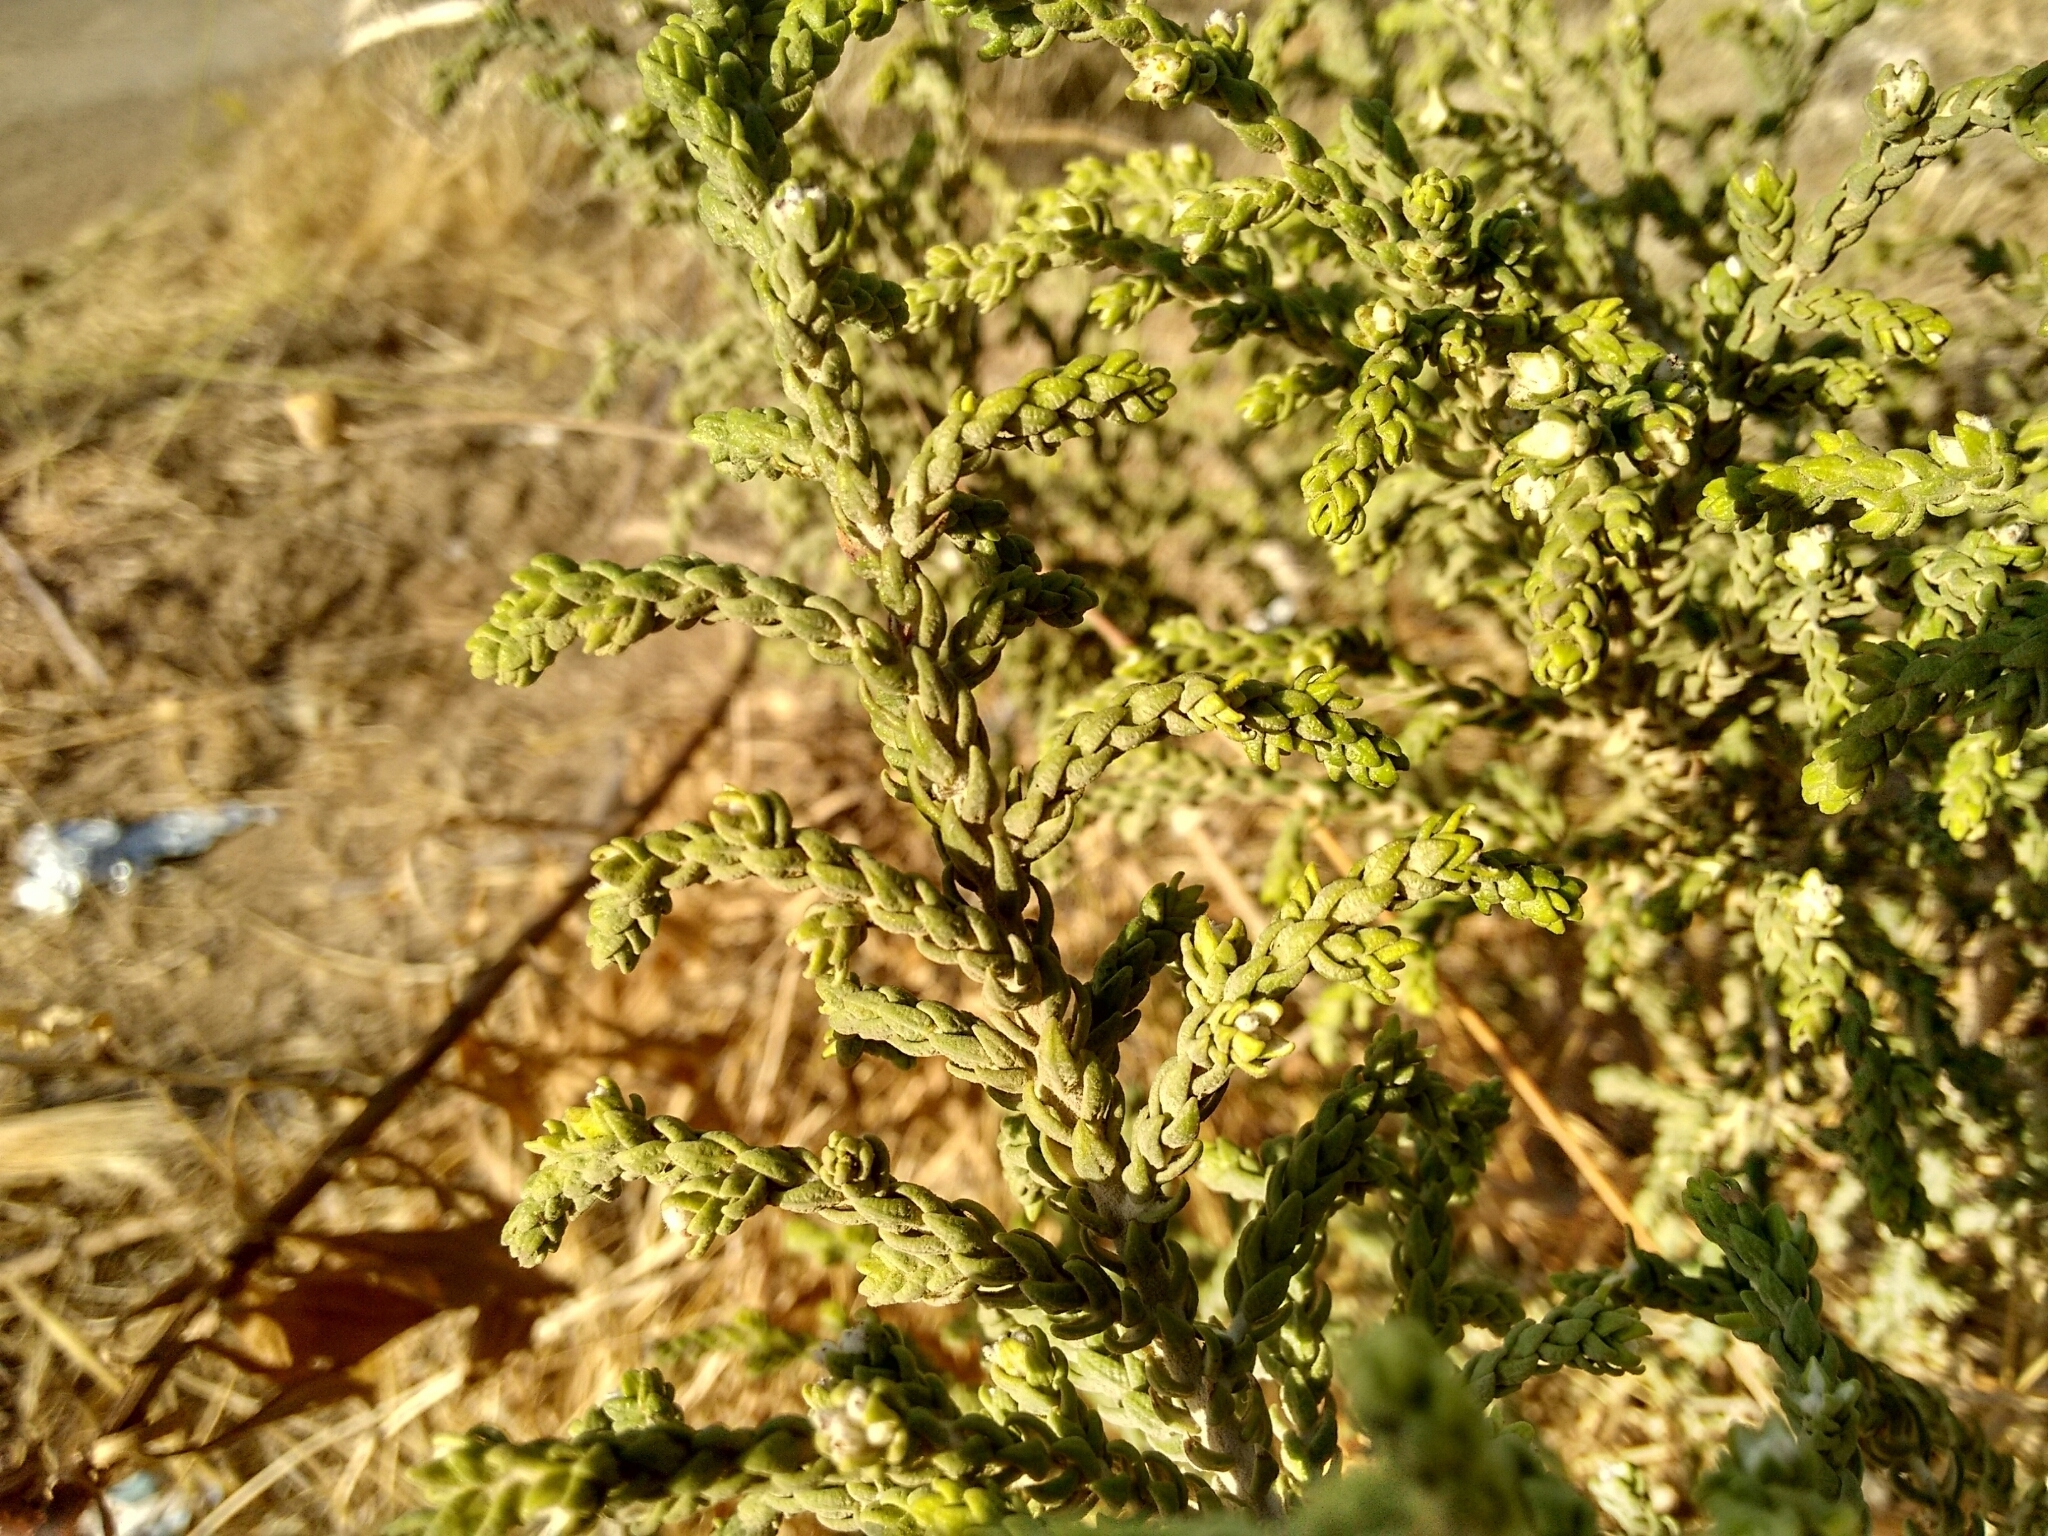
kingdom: Plantae
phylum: Tracheophyta
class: Magnoliopsida
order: Malvales
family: Thymelaeaceae
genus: Thymelaea
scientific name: Thymelaea hirsuta
